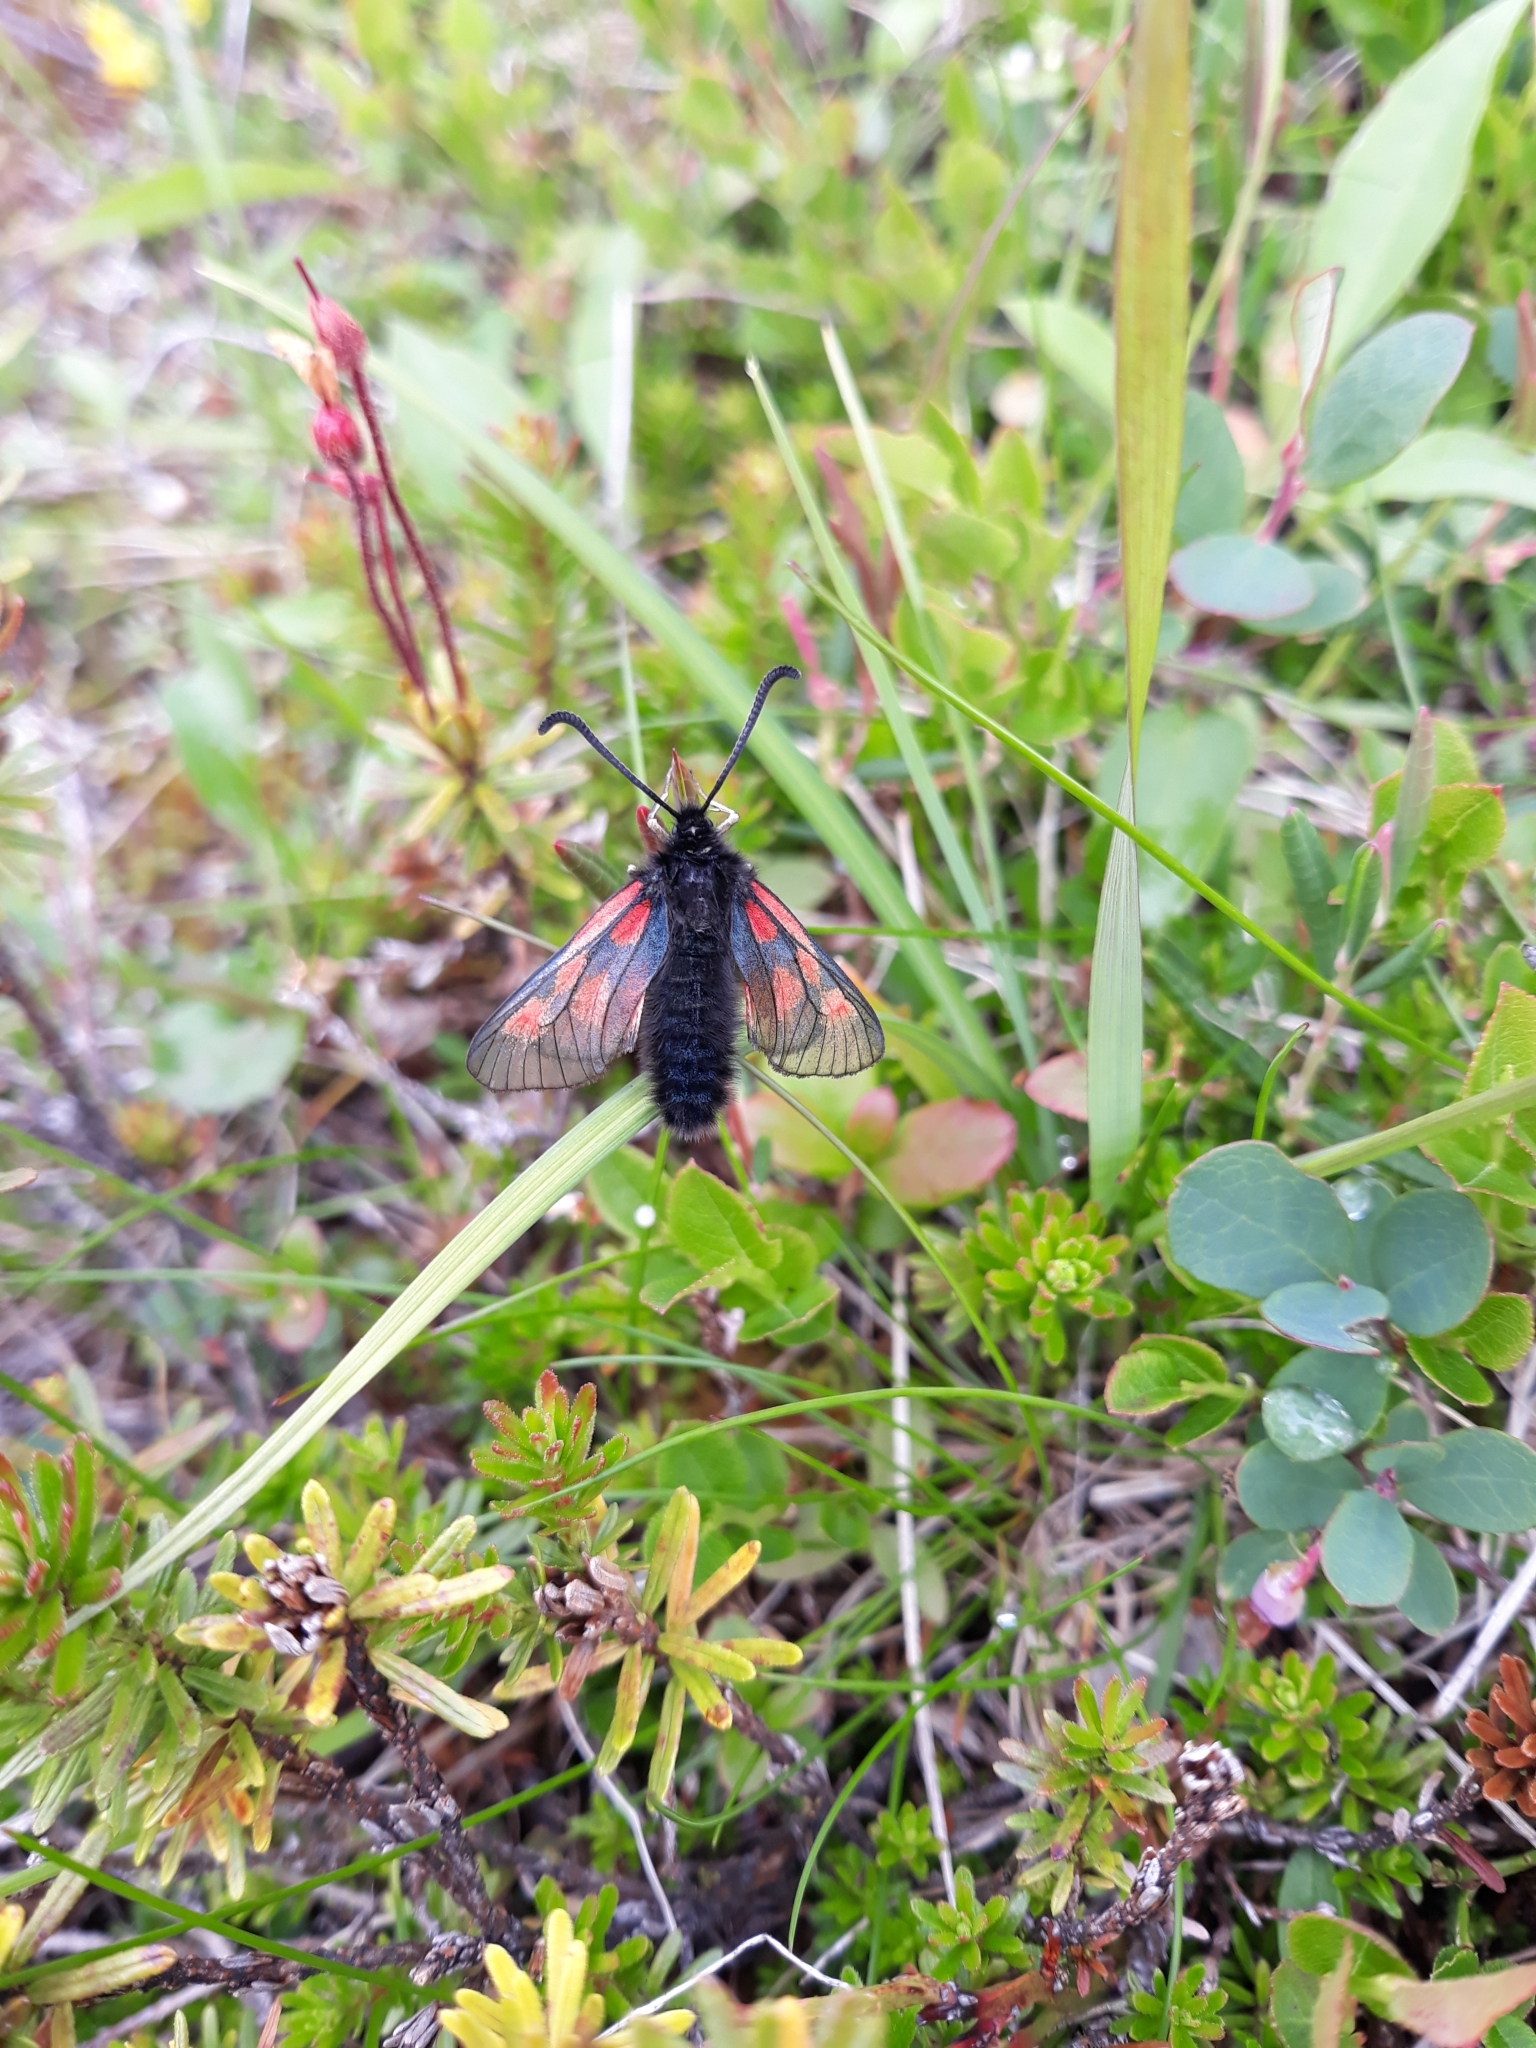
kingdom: Animalia
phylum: Arthropoda
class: Insecta
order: Lepidoptera
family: Zygaenidae
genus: Zygaena
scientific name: Zygaena exulans
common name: Scotch burnet
